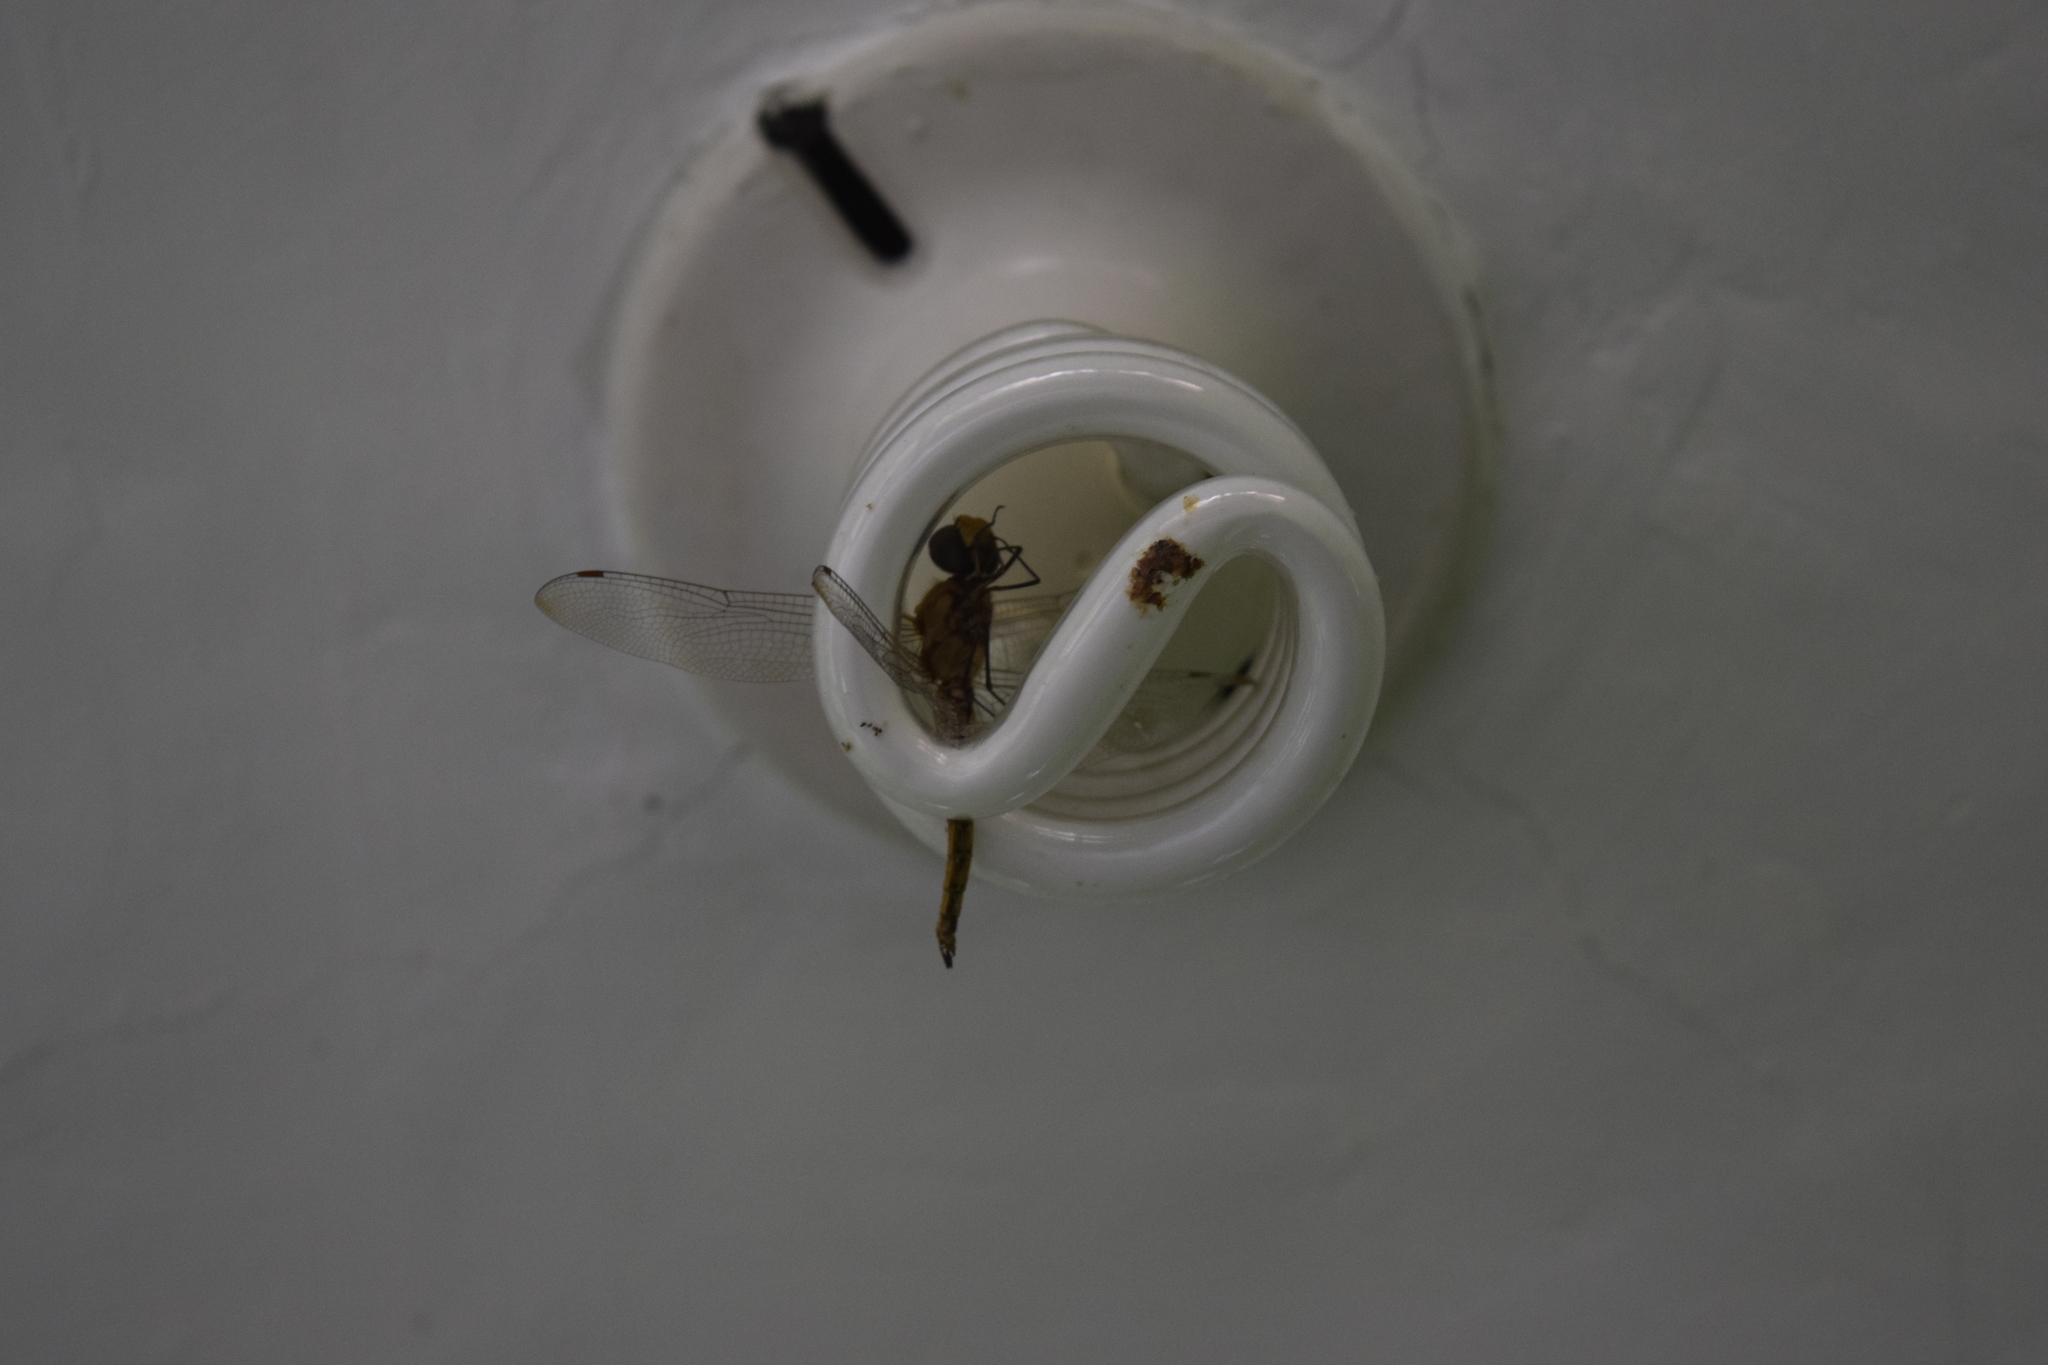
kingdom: Animalia
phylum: Arthropoda
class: Insecta
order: Odonata
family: Libellulidae
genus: Pantala
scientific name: Pantala flavescens
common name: Wandering glider
